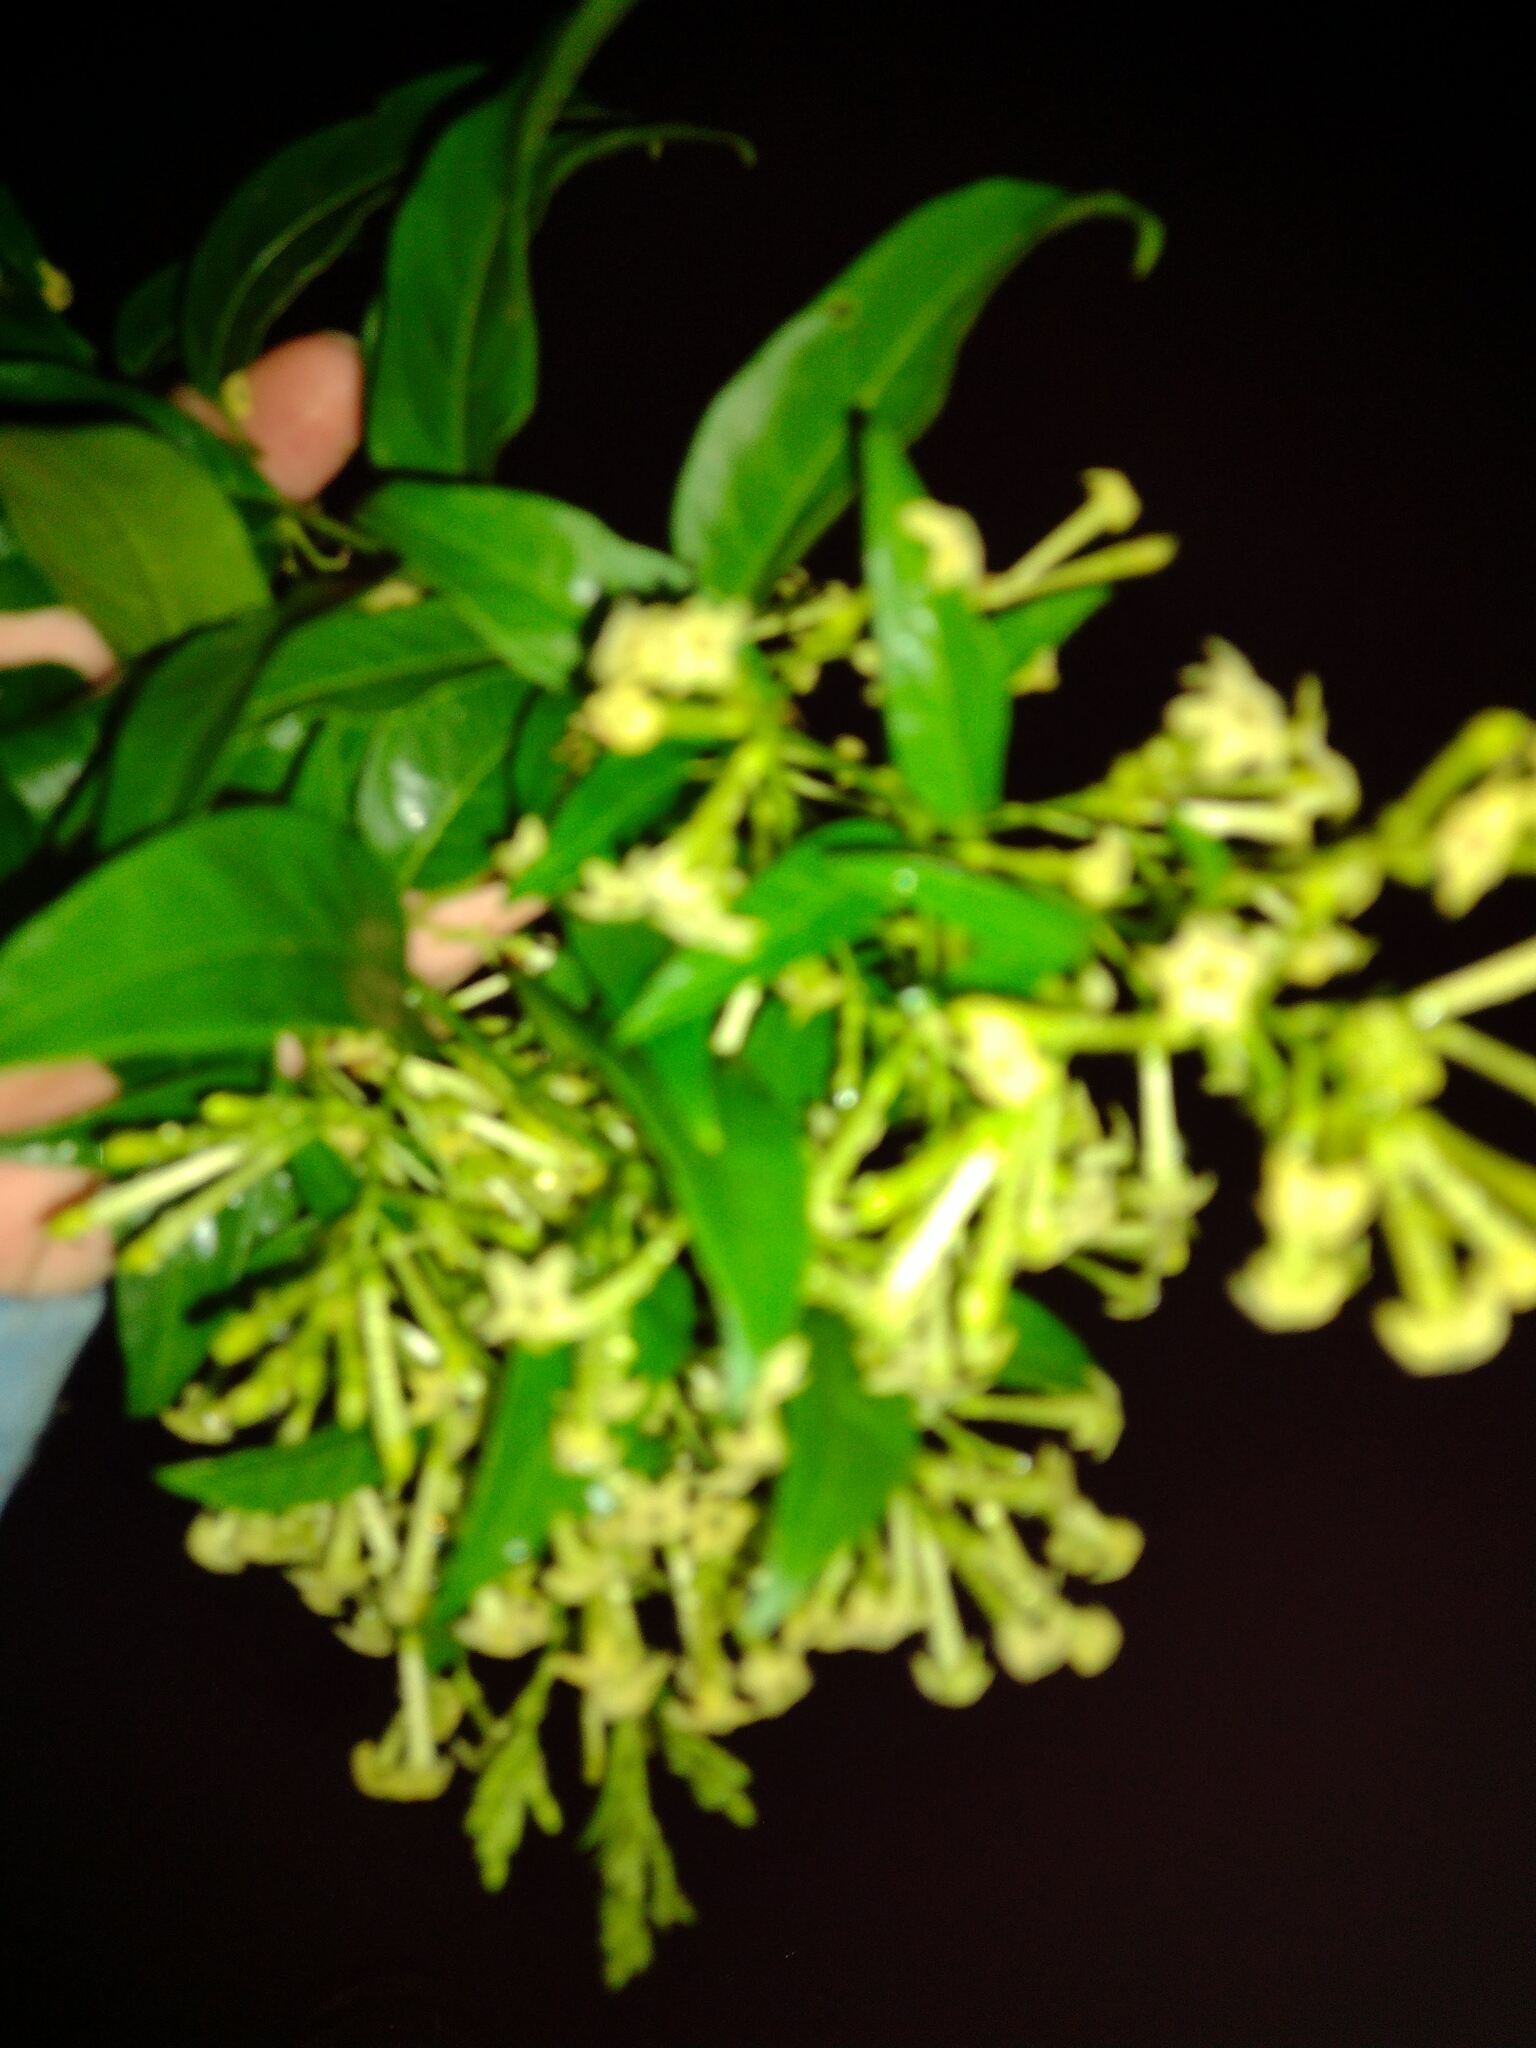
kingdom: Plantae
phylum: Tracheophyta
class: Magnoliopsida
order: Solanales
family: Solanaceae
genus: Cestrum
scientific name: Cestrum nocturnum
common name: Night jessamine
